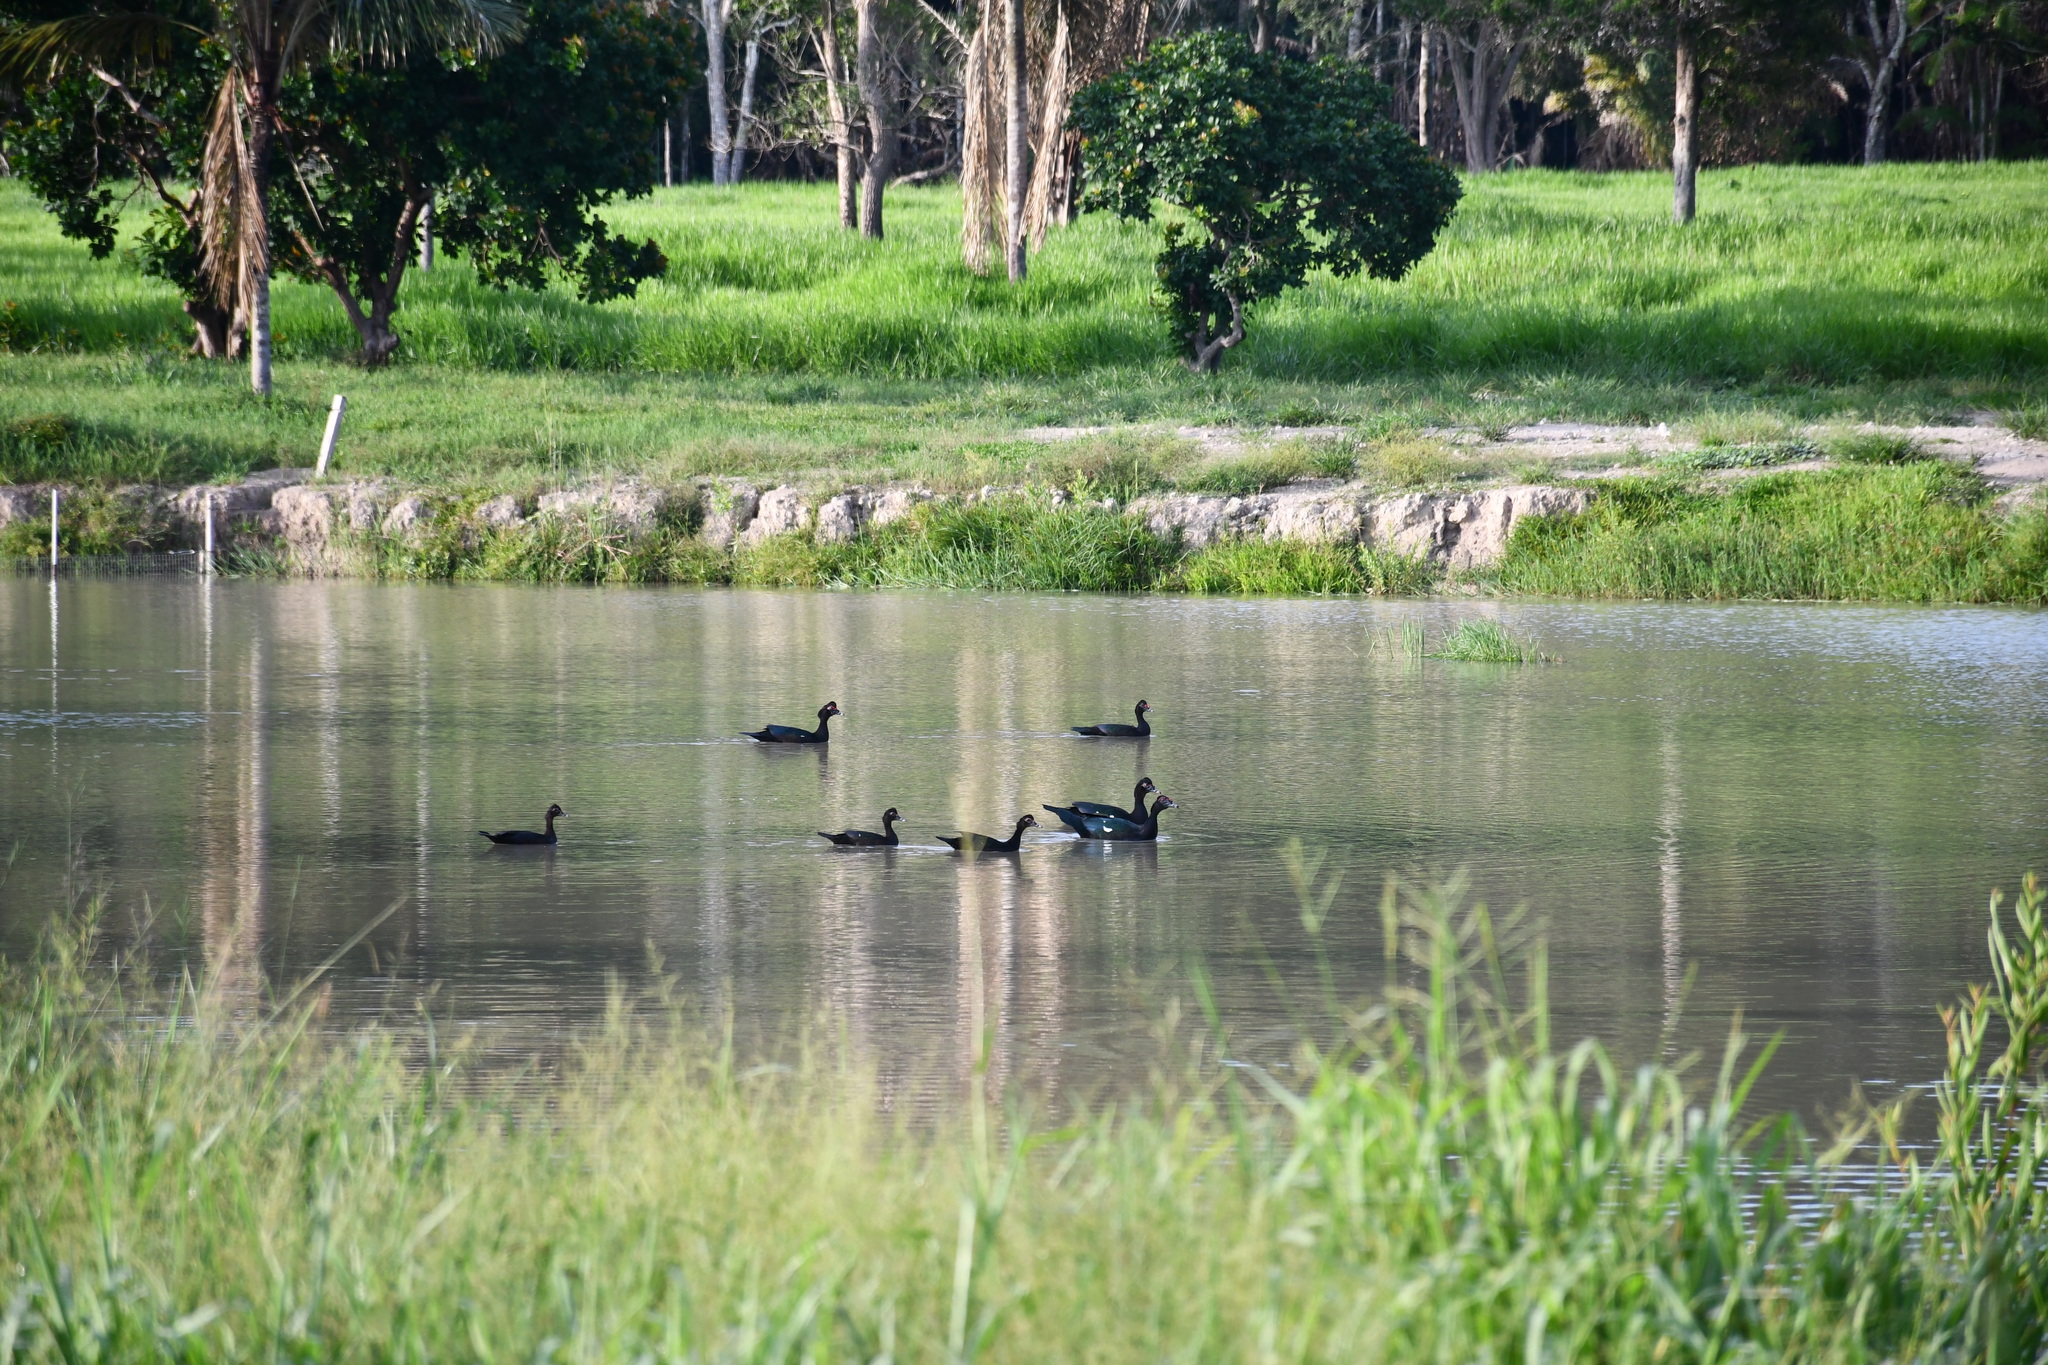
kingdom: Animalia
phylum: Chordata
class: Aves
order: Anseriformes
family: Anatidae
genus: Cairina
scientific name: Cairina moschata
